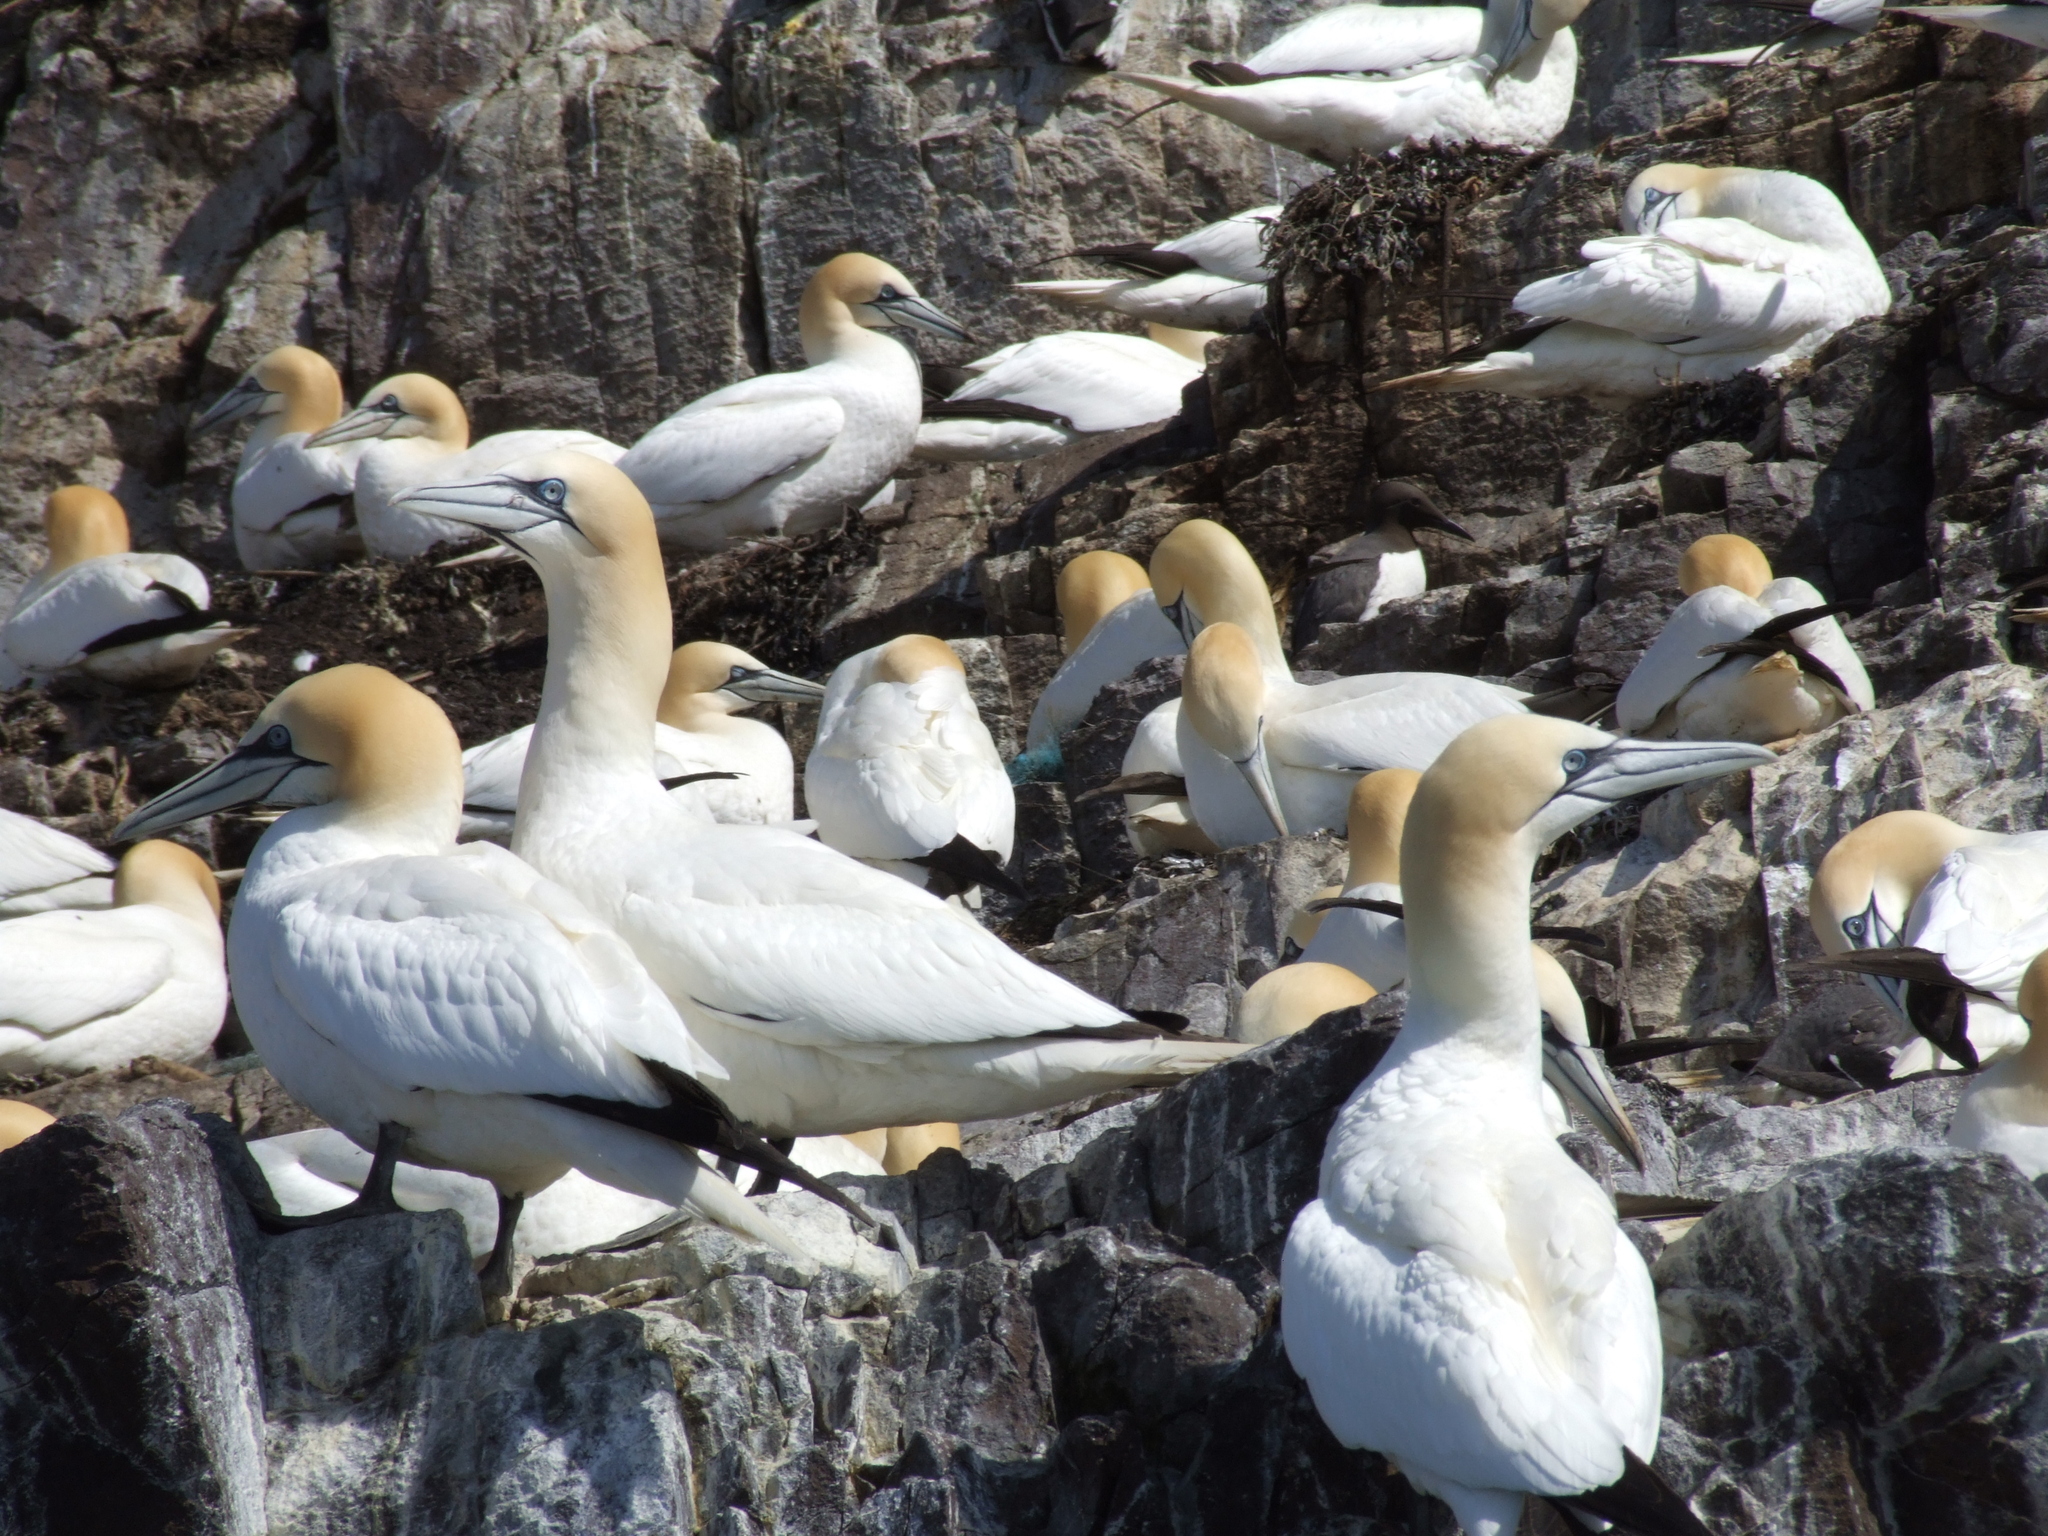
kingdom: Animalia
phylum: Chordata
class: Aves
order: Suliformes
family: Sulidae
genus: Morus
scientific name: Morus bassanus
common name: Northern gannet
